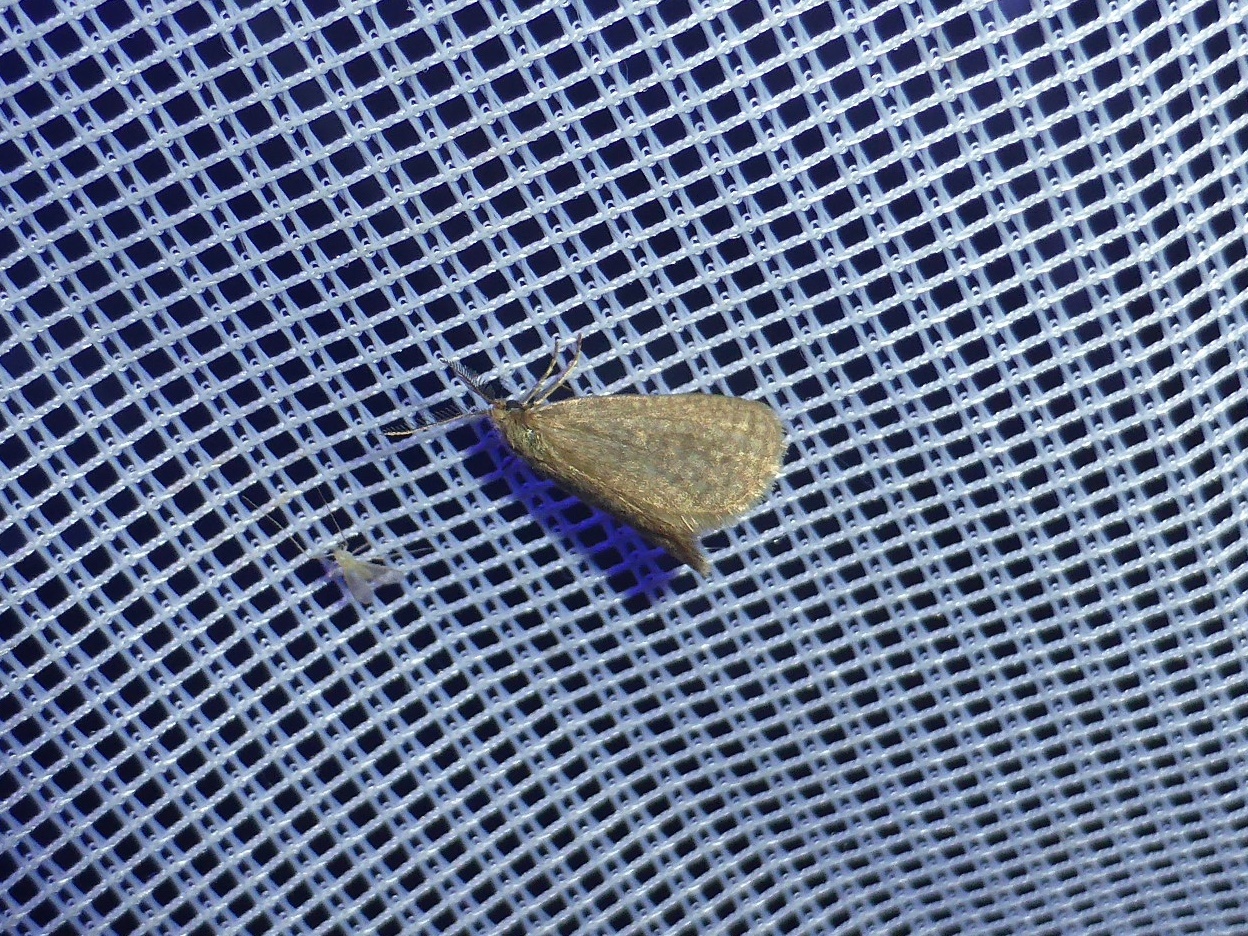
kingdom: Animalia
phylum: Arthropoda
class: Insecta
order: Lepidoptera
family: Psychidae
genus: Bijugis
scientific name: Bijugis bombycella
